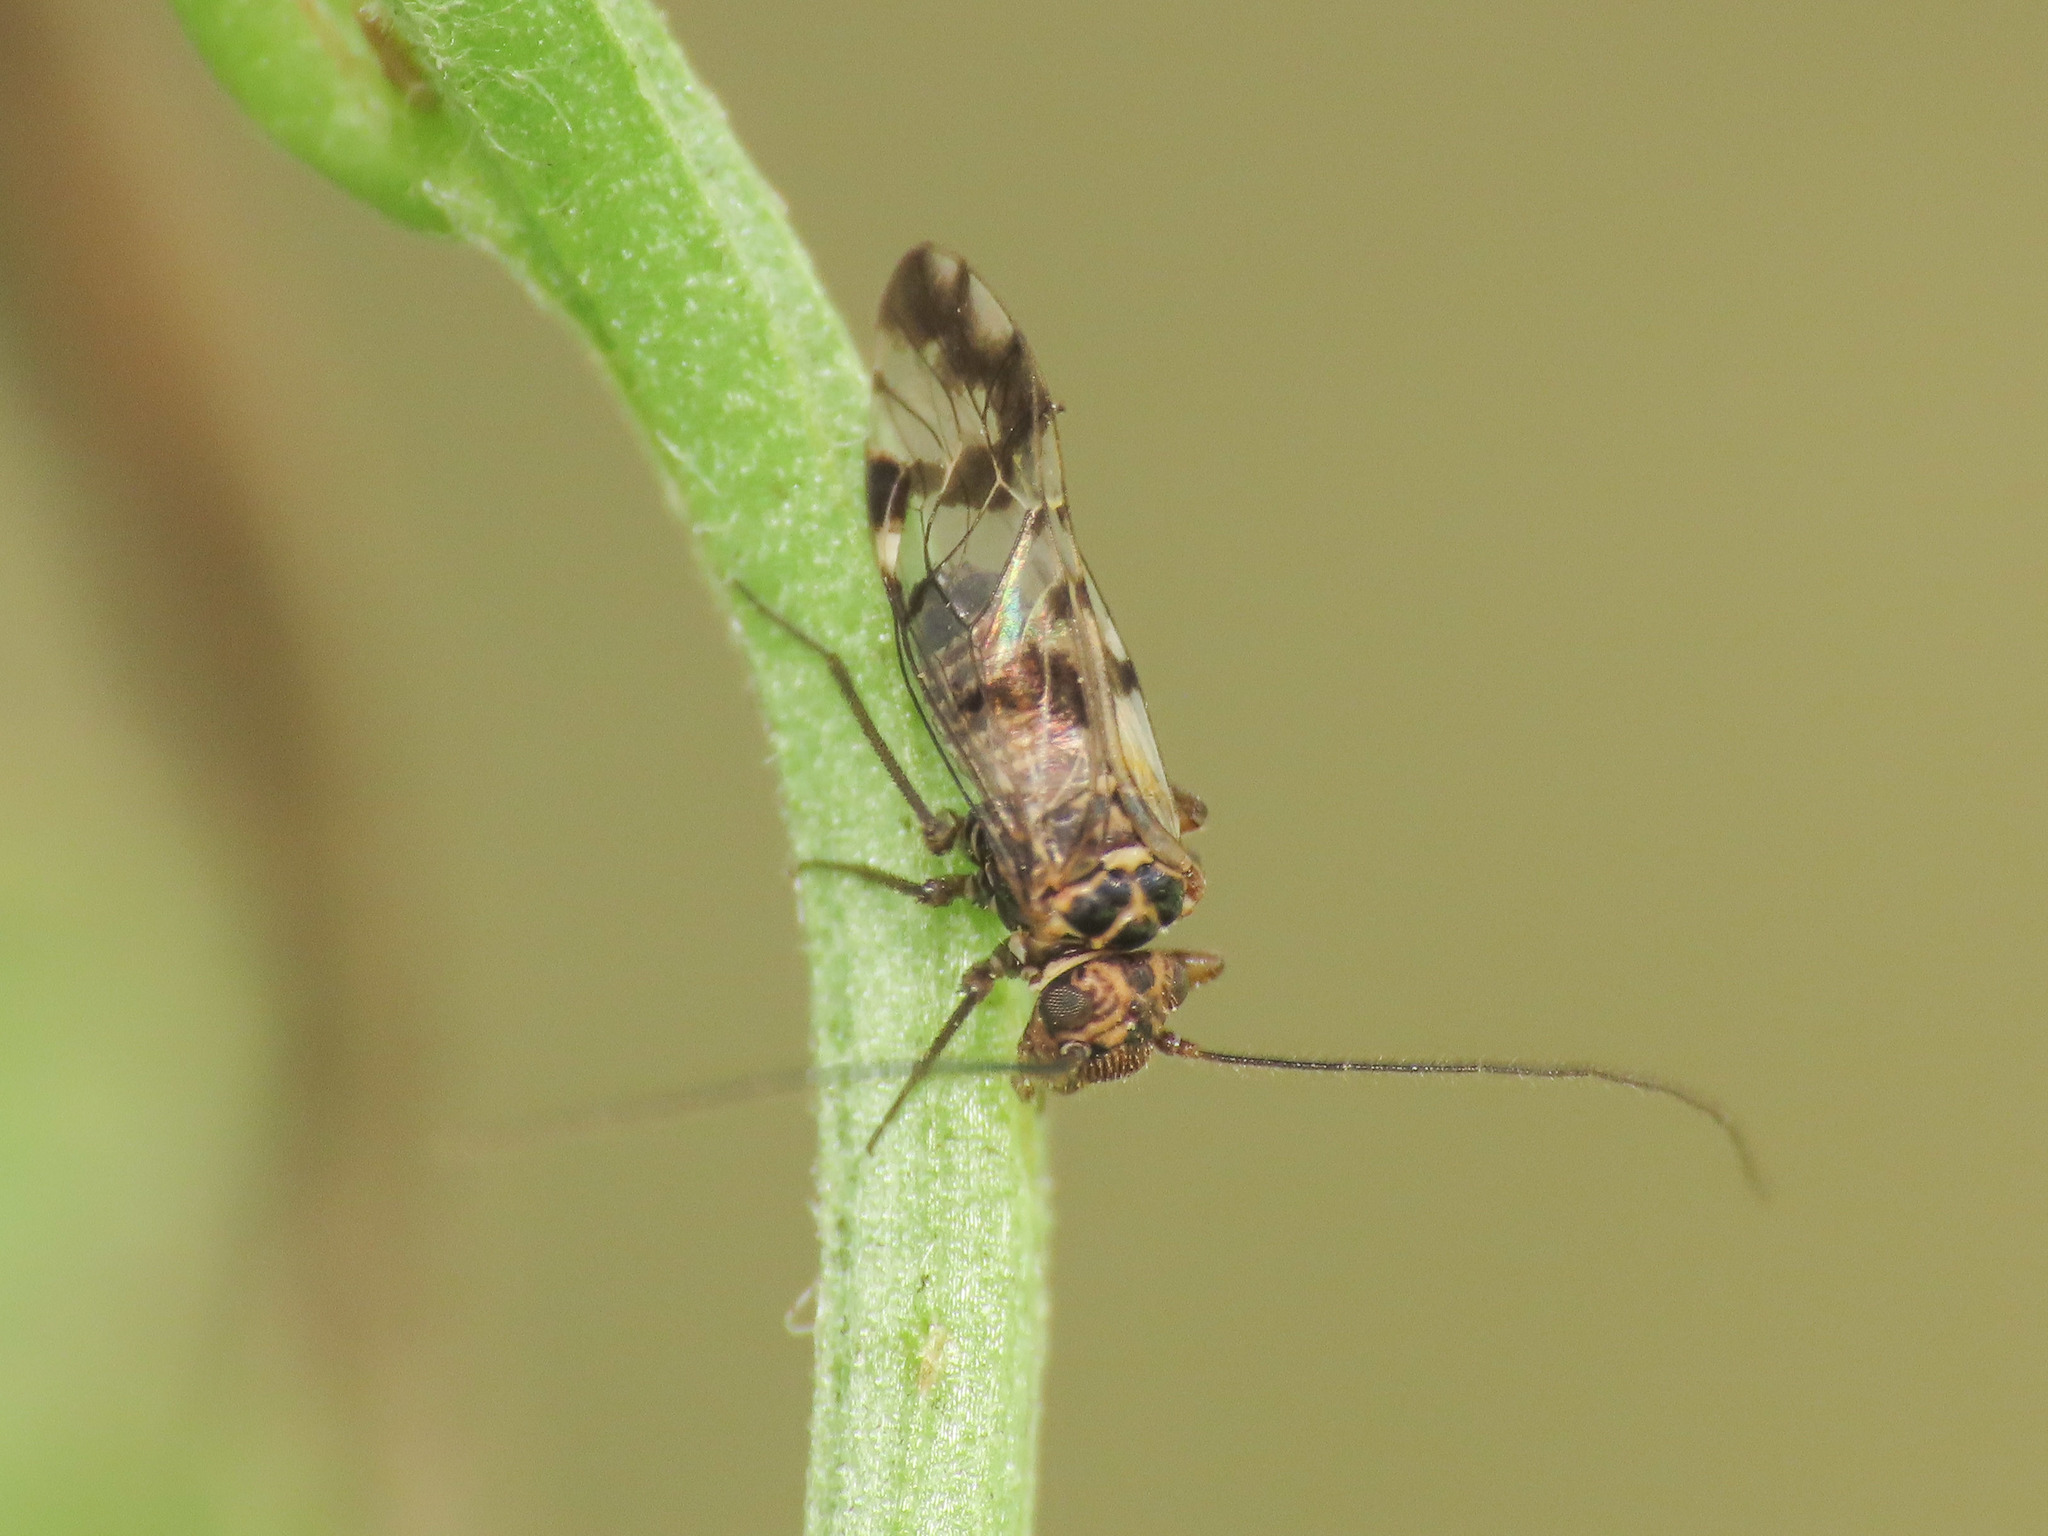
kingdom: Animalia
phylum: Arthropoda
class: Insecta
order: Psocodea
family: Psocidae
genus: Neopsocus
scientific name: Neopsocus rhenanus
